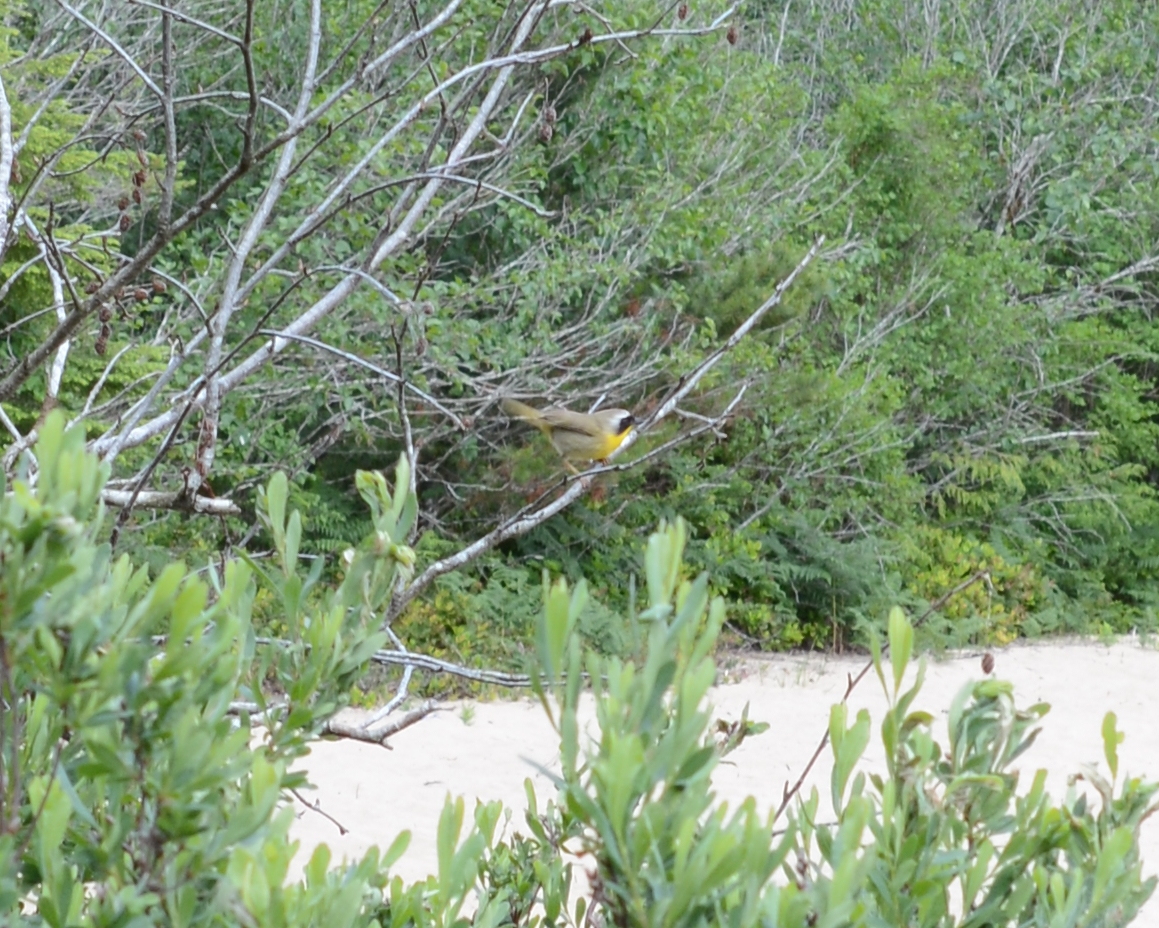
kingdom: Animalia
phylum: Chordata
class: Aves
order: Passeriformes
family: Parulidae
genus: Geothlypis
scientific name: Geothlypis trichas
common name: Common yellowthroat
